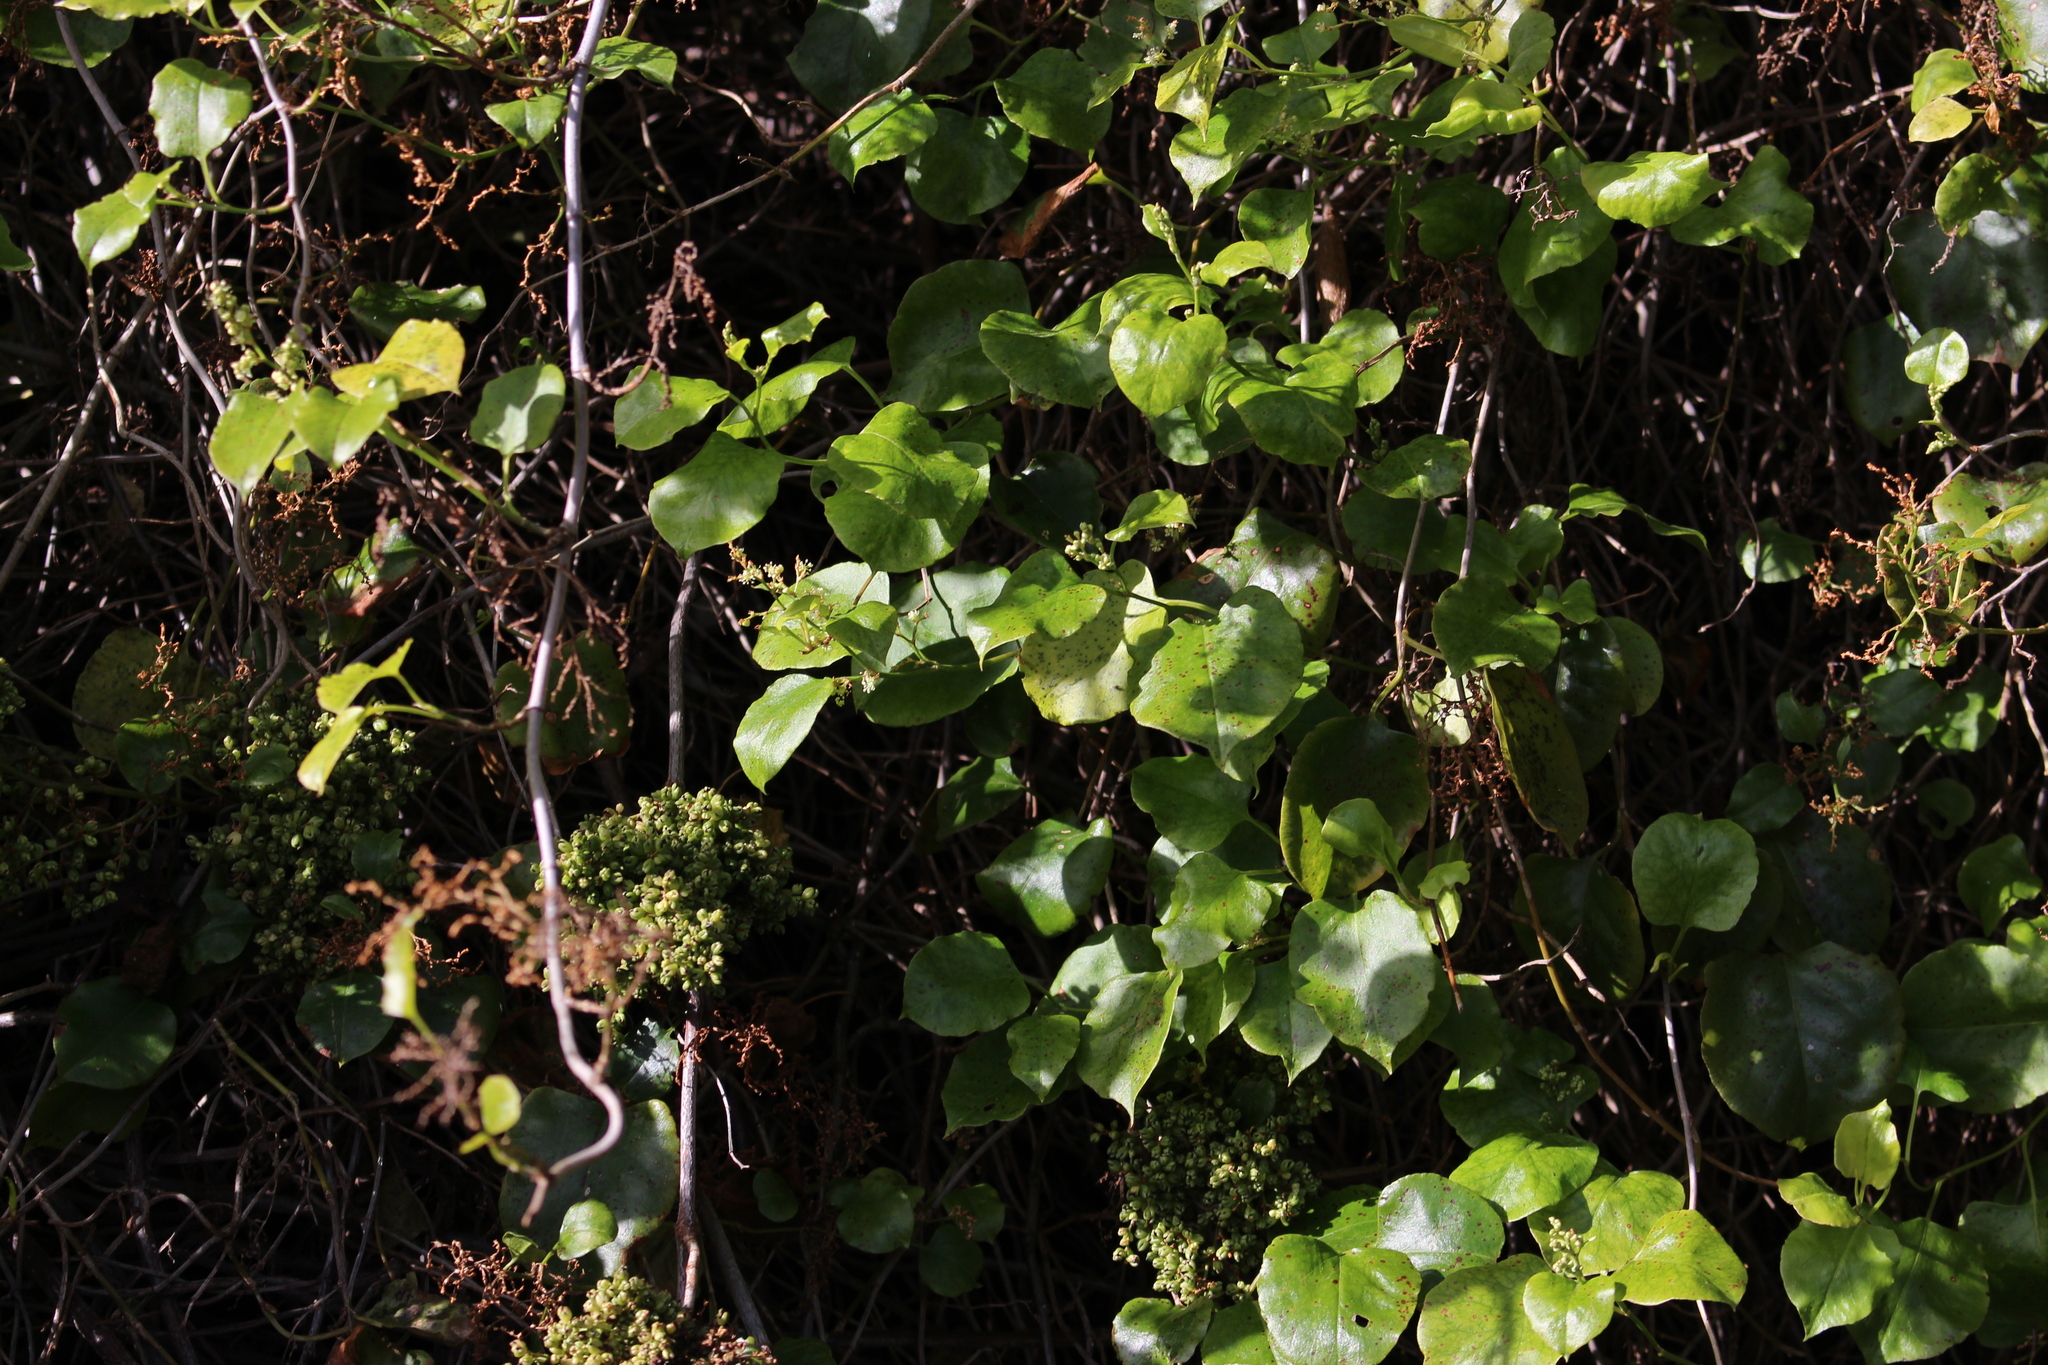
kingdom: Plantae
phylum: Tracheophyta
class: Magnoliopsida
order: Caryophyllales
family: Polygonaceae
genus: Muehlenbeckia
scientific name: Muehlenbeckia australis
